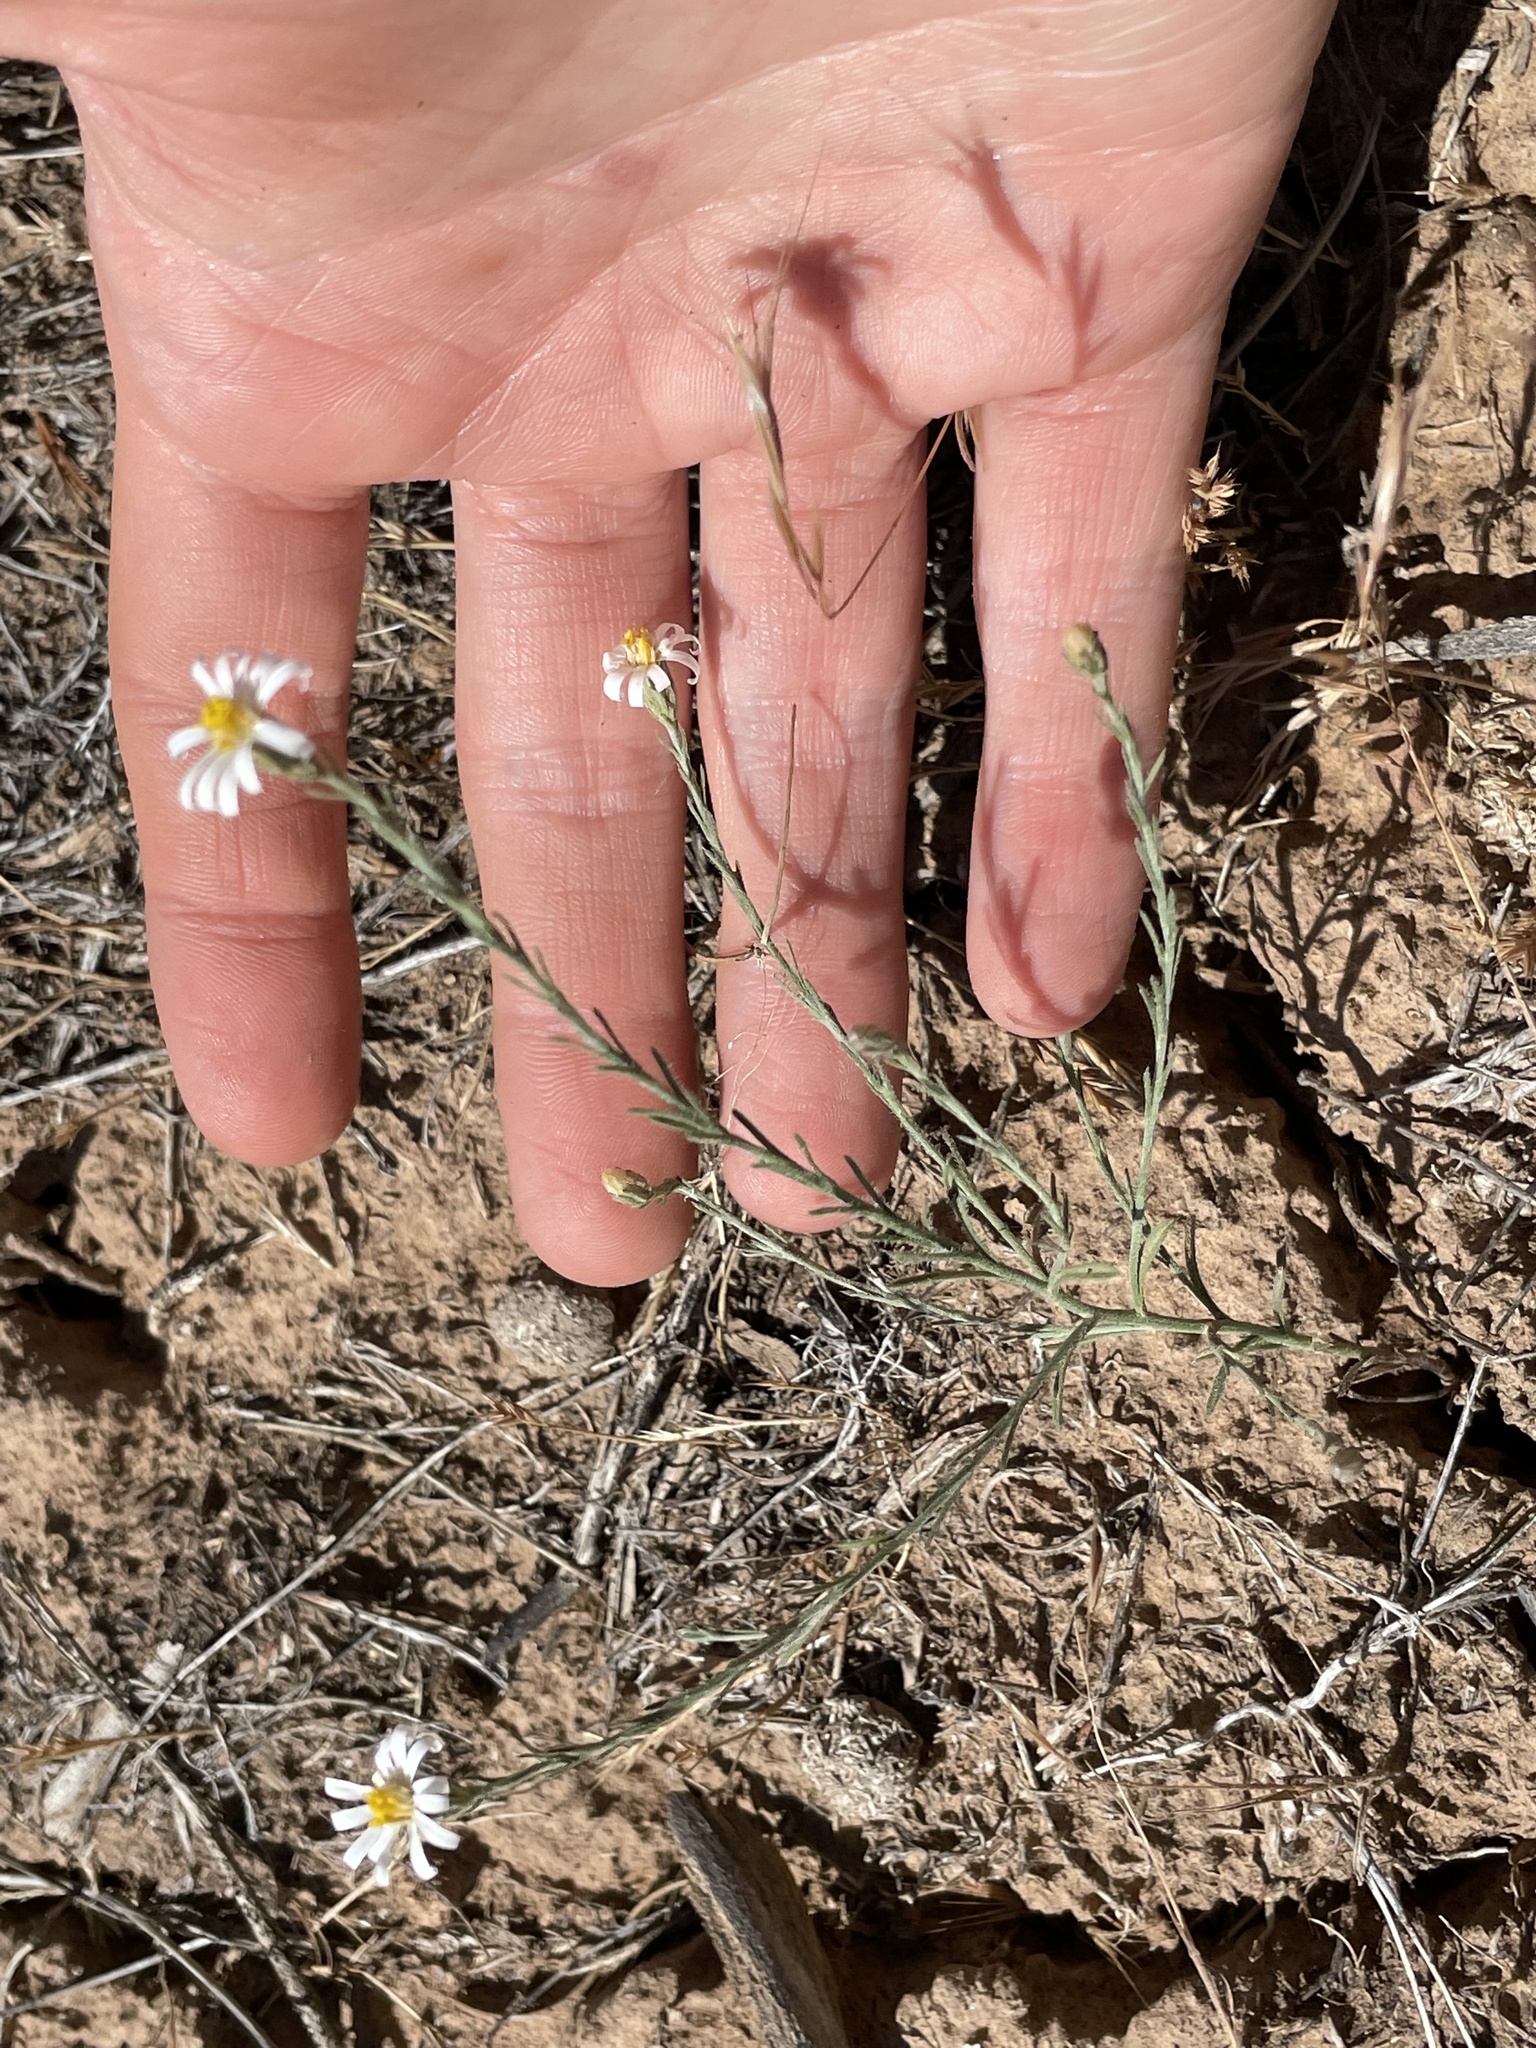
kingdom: Plantae
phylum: Tracheophyta
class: Magnoliopsida
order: Asterales
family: Asteraceae
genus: Chaetopappa
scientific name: Chaetopappa ericoides
